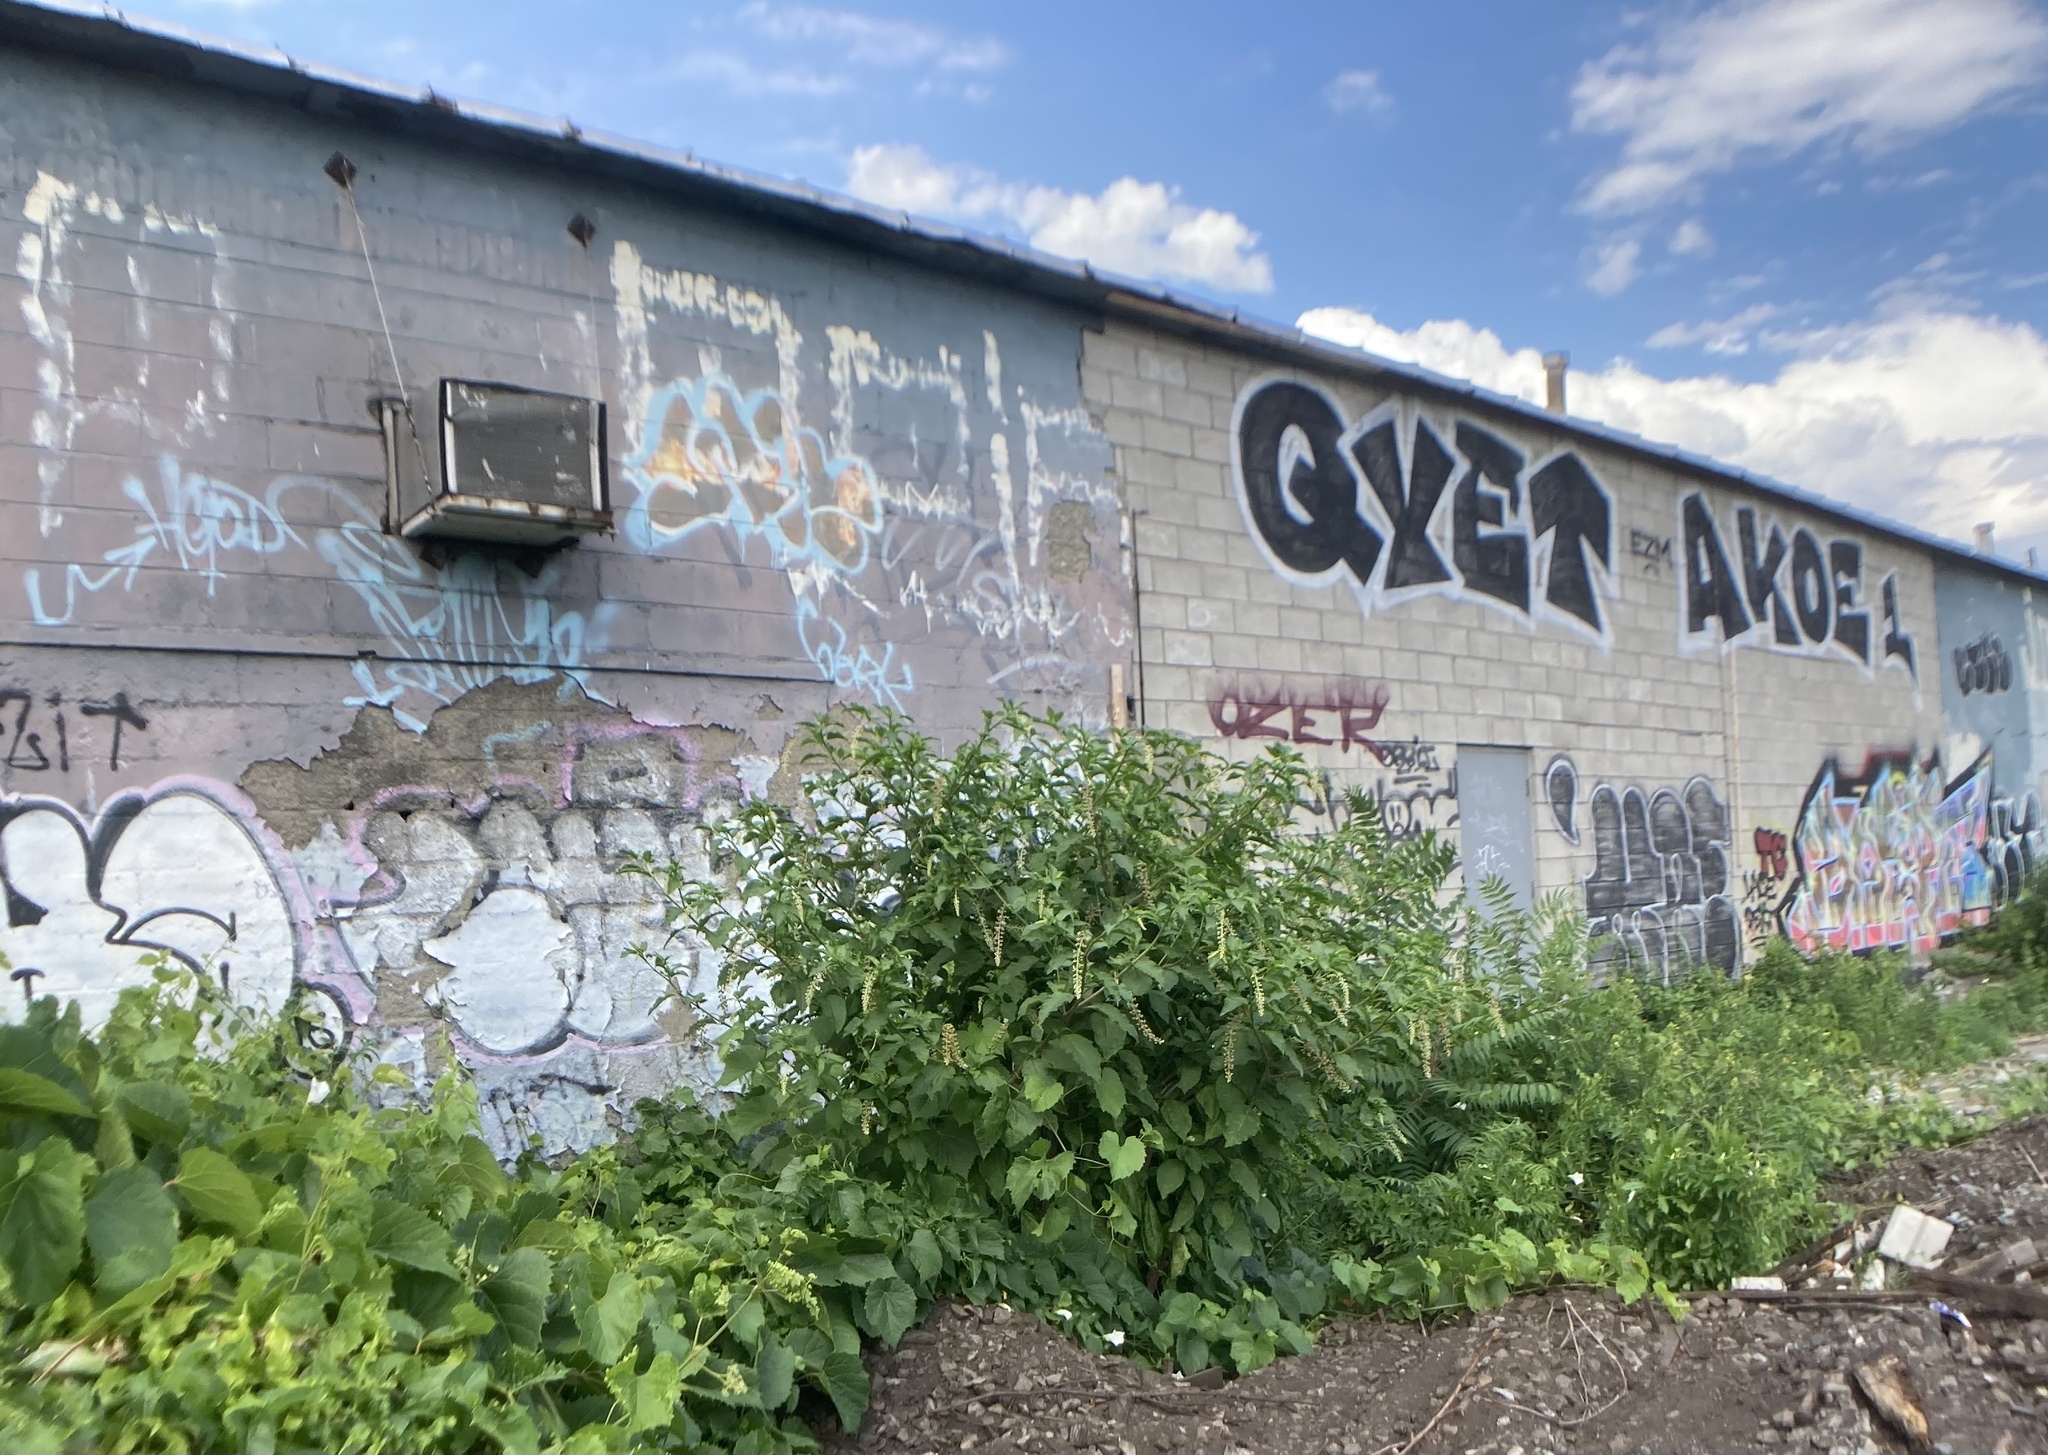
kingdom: Plantae
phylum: Tracheophyta
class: Magnoliopsida
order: Caryophyllales
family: Phytolaccaceae
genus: Phytolacca
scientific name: Phytolacca americana
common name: American pokeweed
